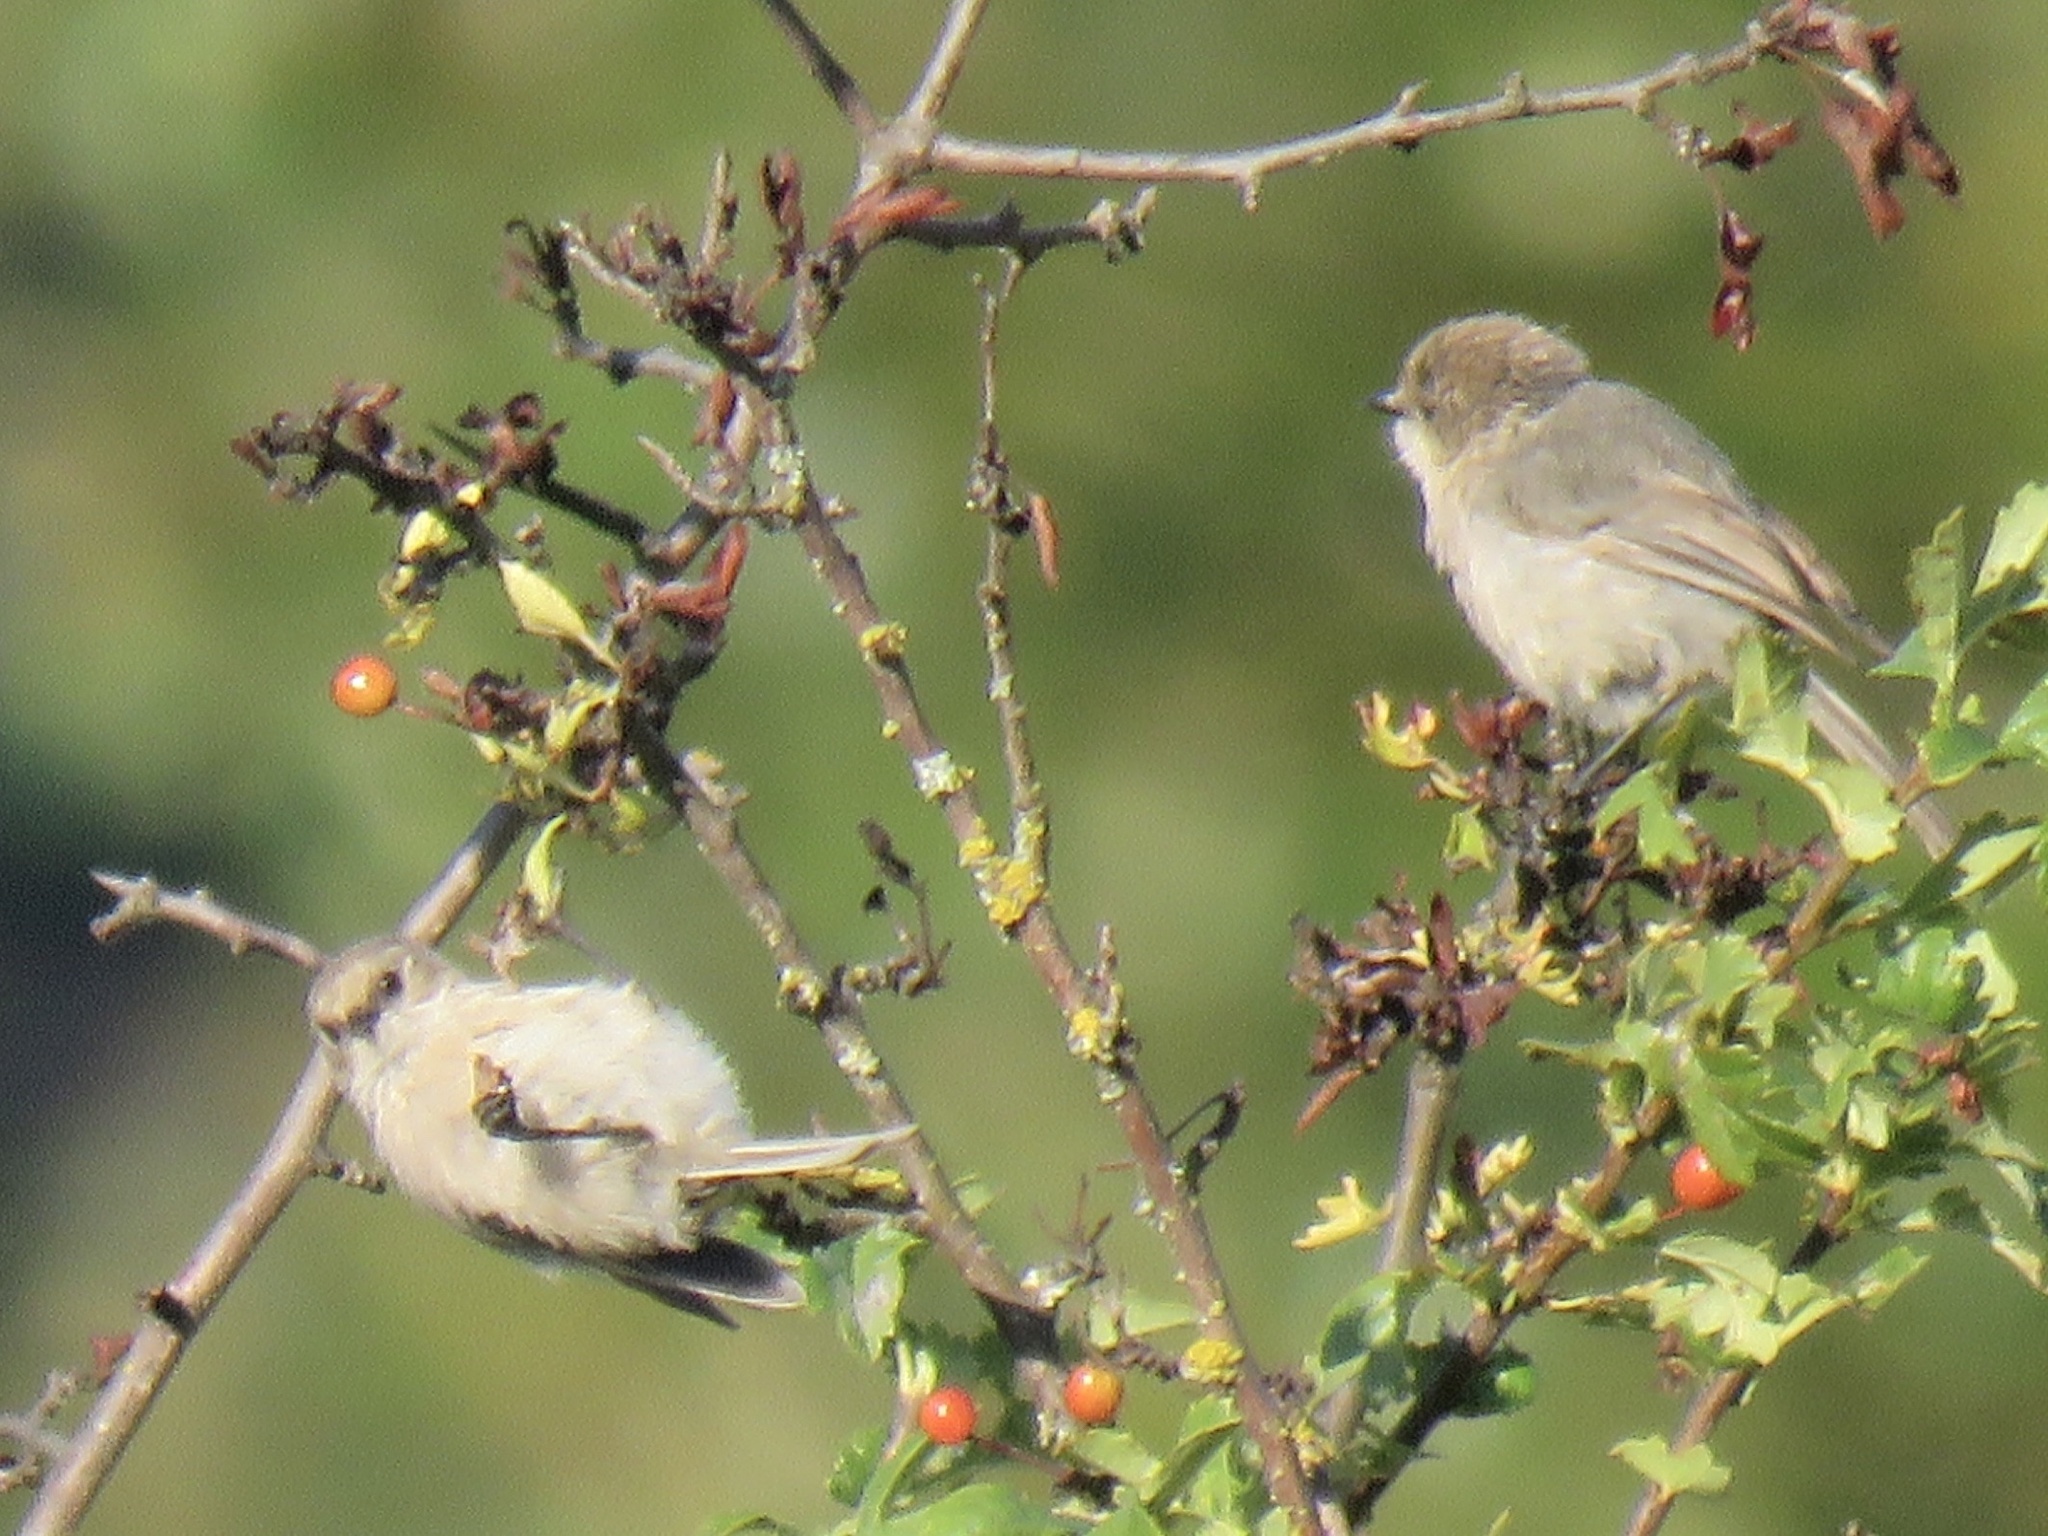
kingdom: Animalia
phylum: Chordata
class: Aves
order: Passeriformes
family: Aegithalidae
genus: Psaltriparus
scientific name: Psaltriparus minimus
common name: American bushtit
